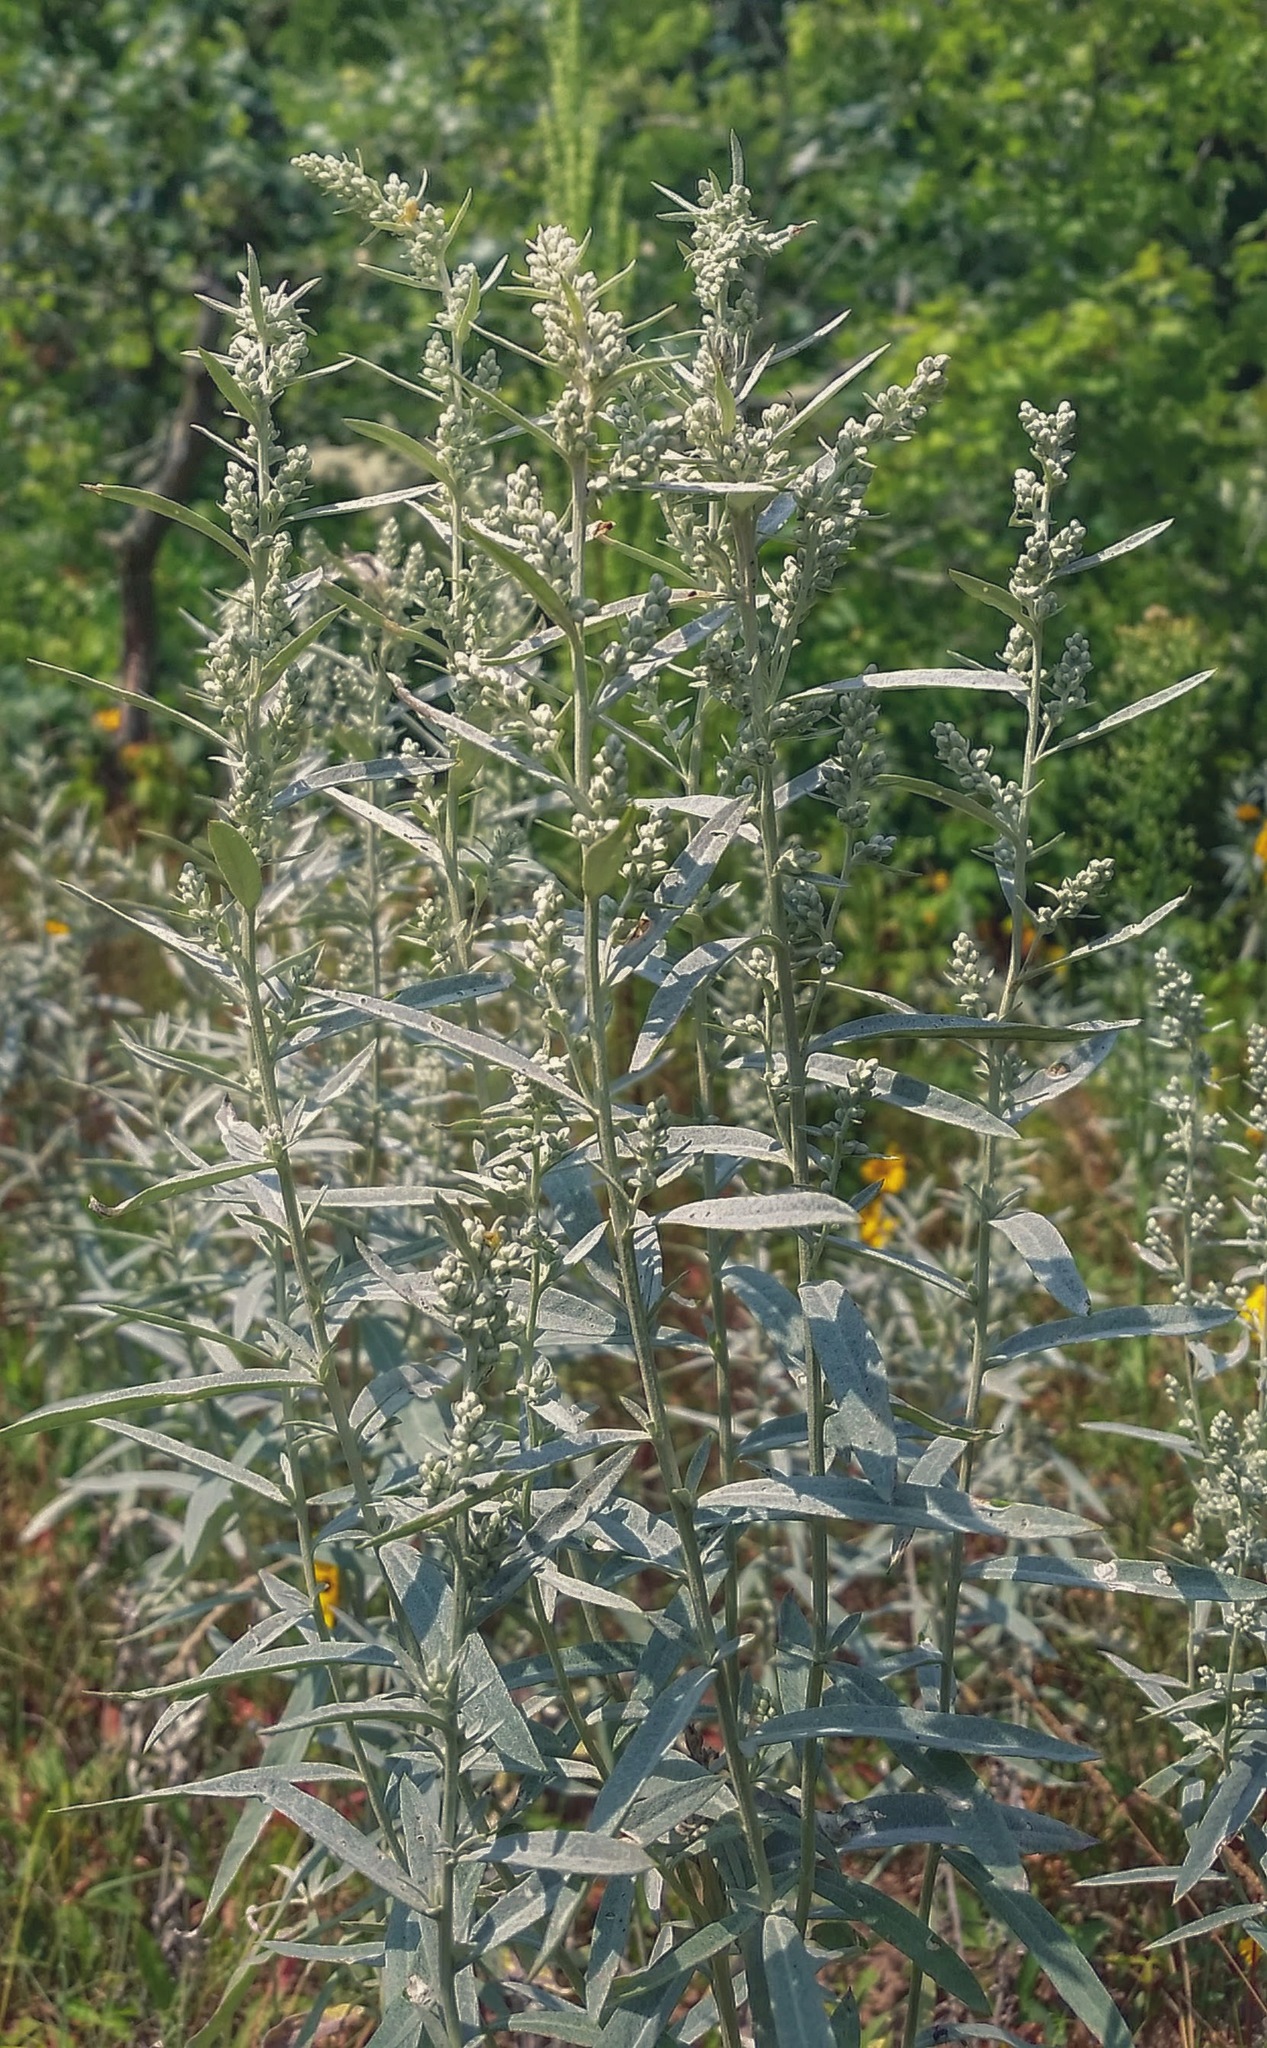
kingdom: Plantae
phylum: Tracheophyta
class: Magnoliopsida
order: Asterales
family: Asteraceae
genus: Artemisia
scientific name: Artemisia ludoviciana
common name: Western mugwort
